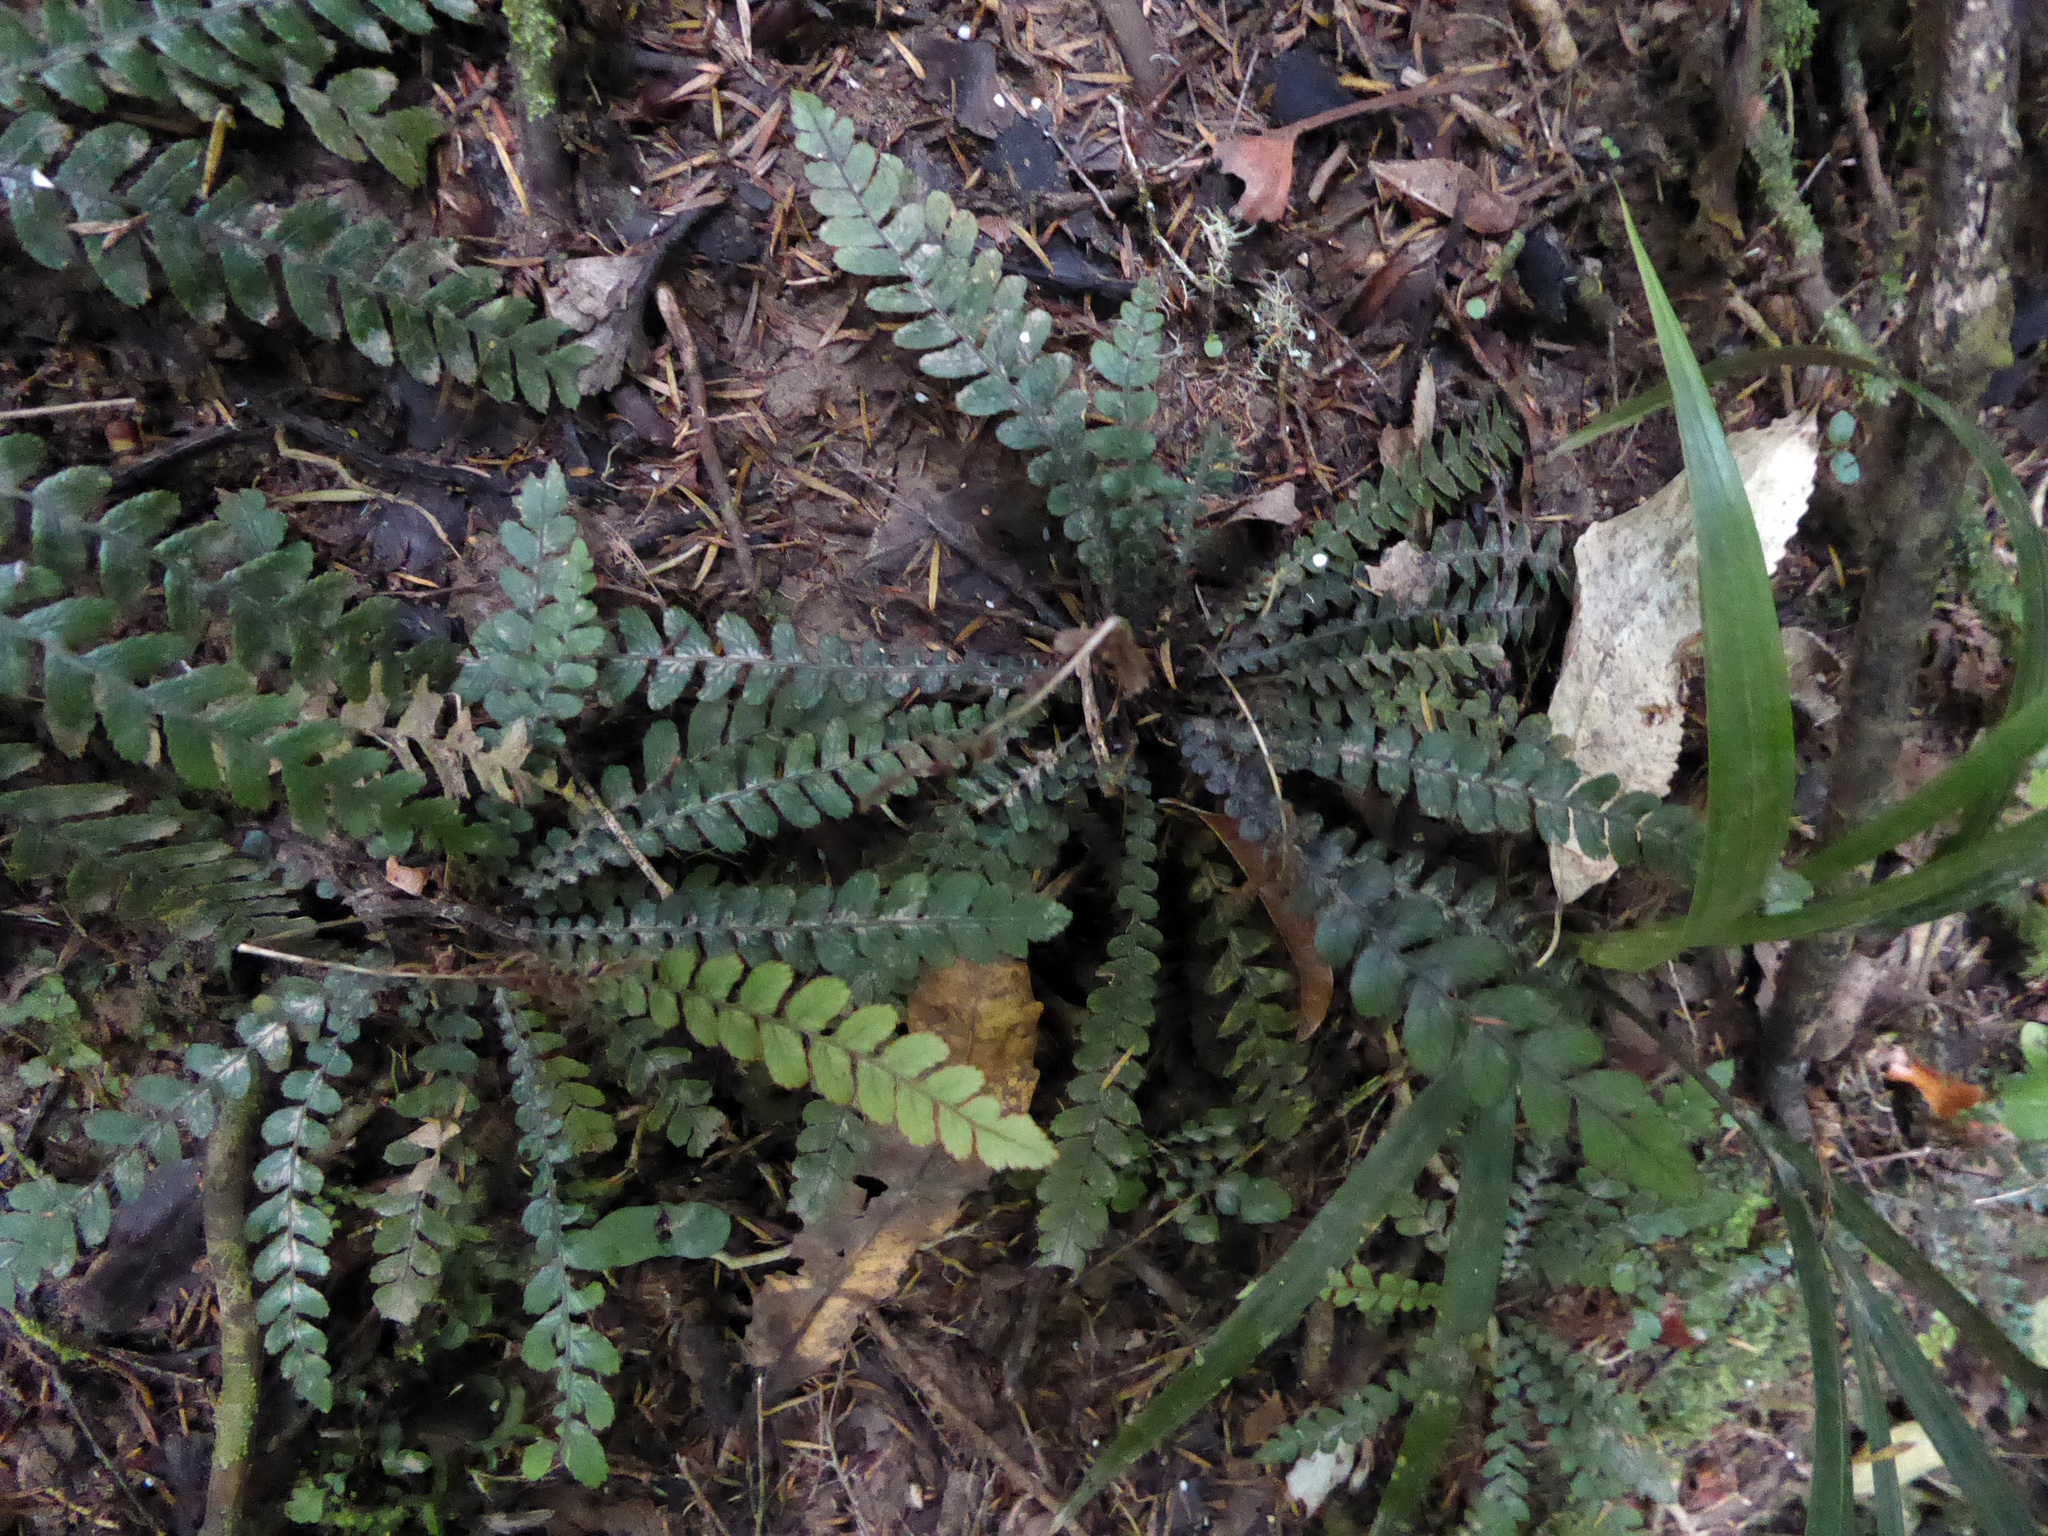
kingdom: Plantae
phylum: Tracheophyta
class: Polypodiopsida
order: Polypodiales
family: Blechnaceae
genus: Austroblechnum
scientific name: Austroblechnum membranaceum
